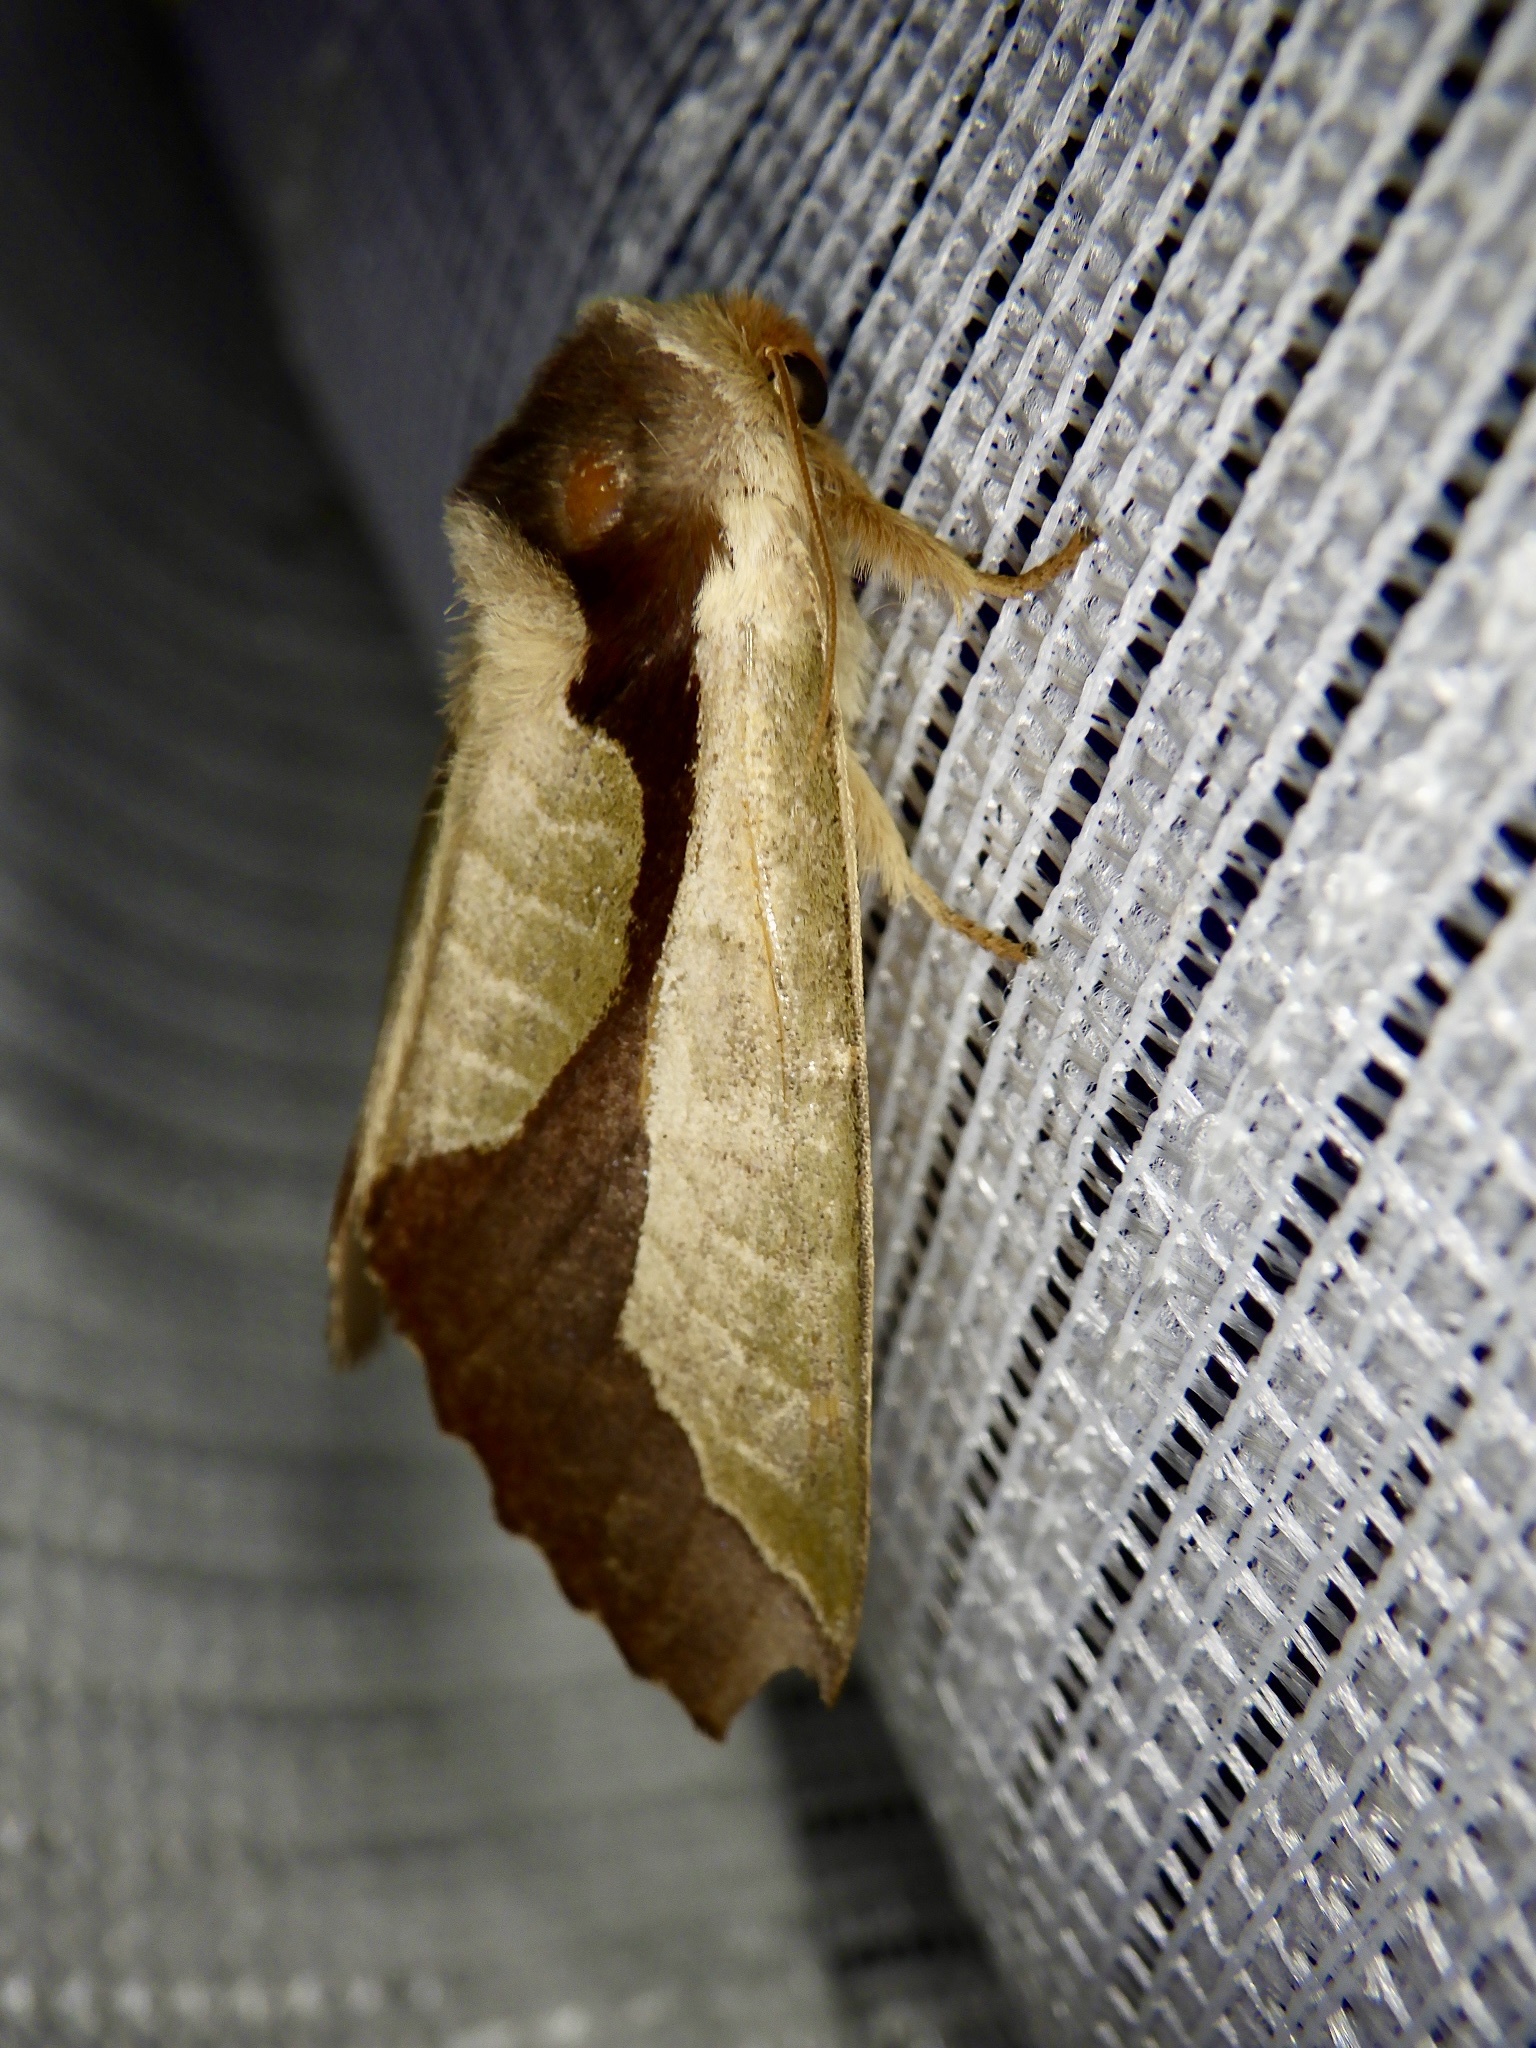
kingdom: Animalia
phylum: Arthropoda
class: Insecta
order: Lepidoptera
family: Notodontidae
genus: Uropyia
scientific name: Uropyia meticulodina
